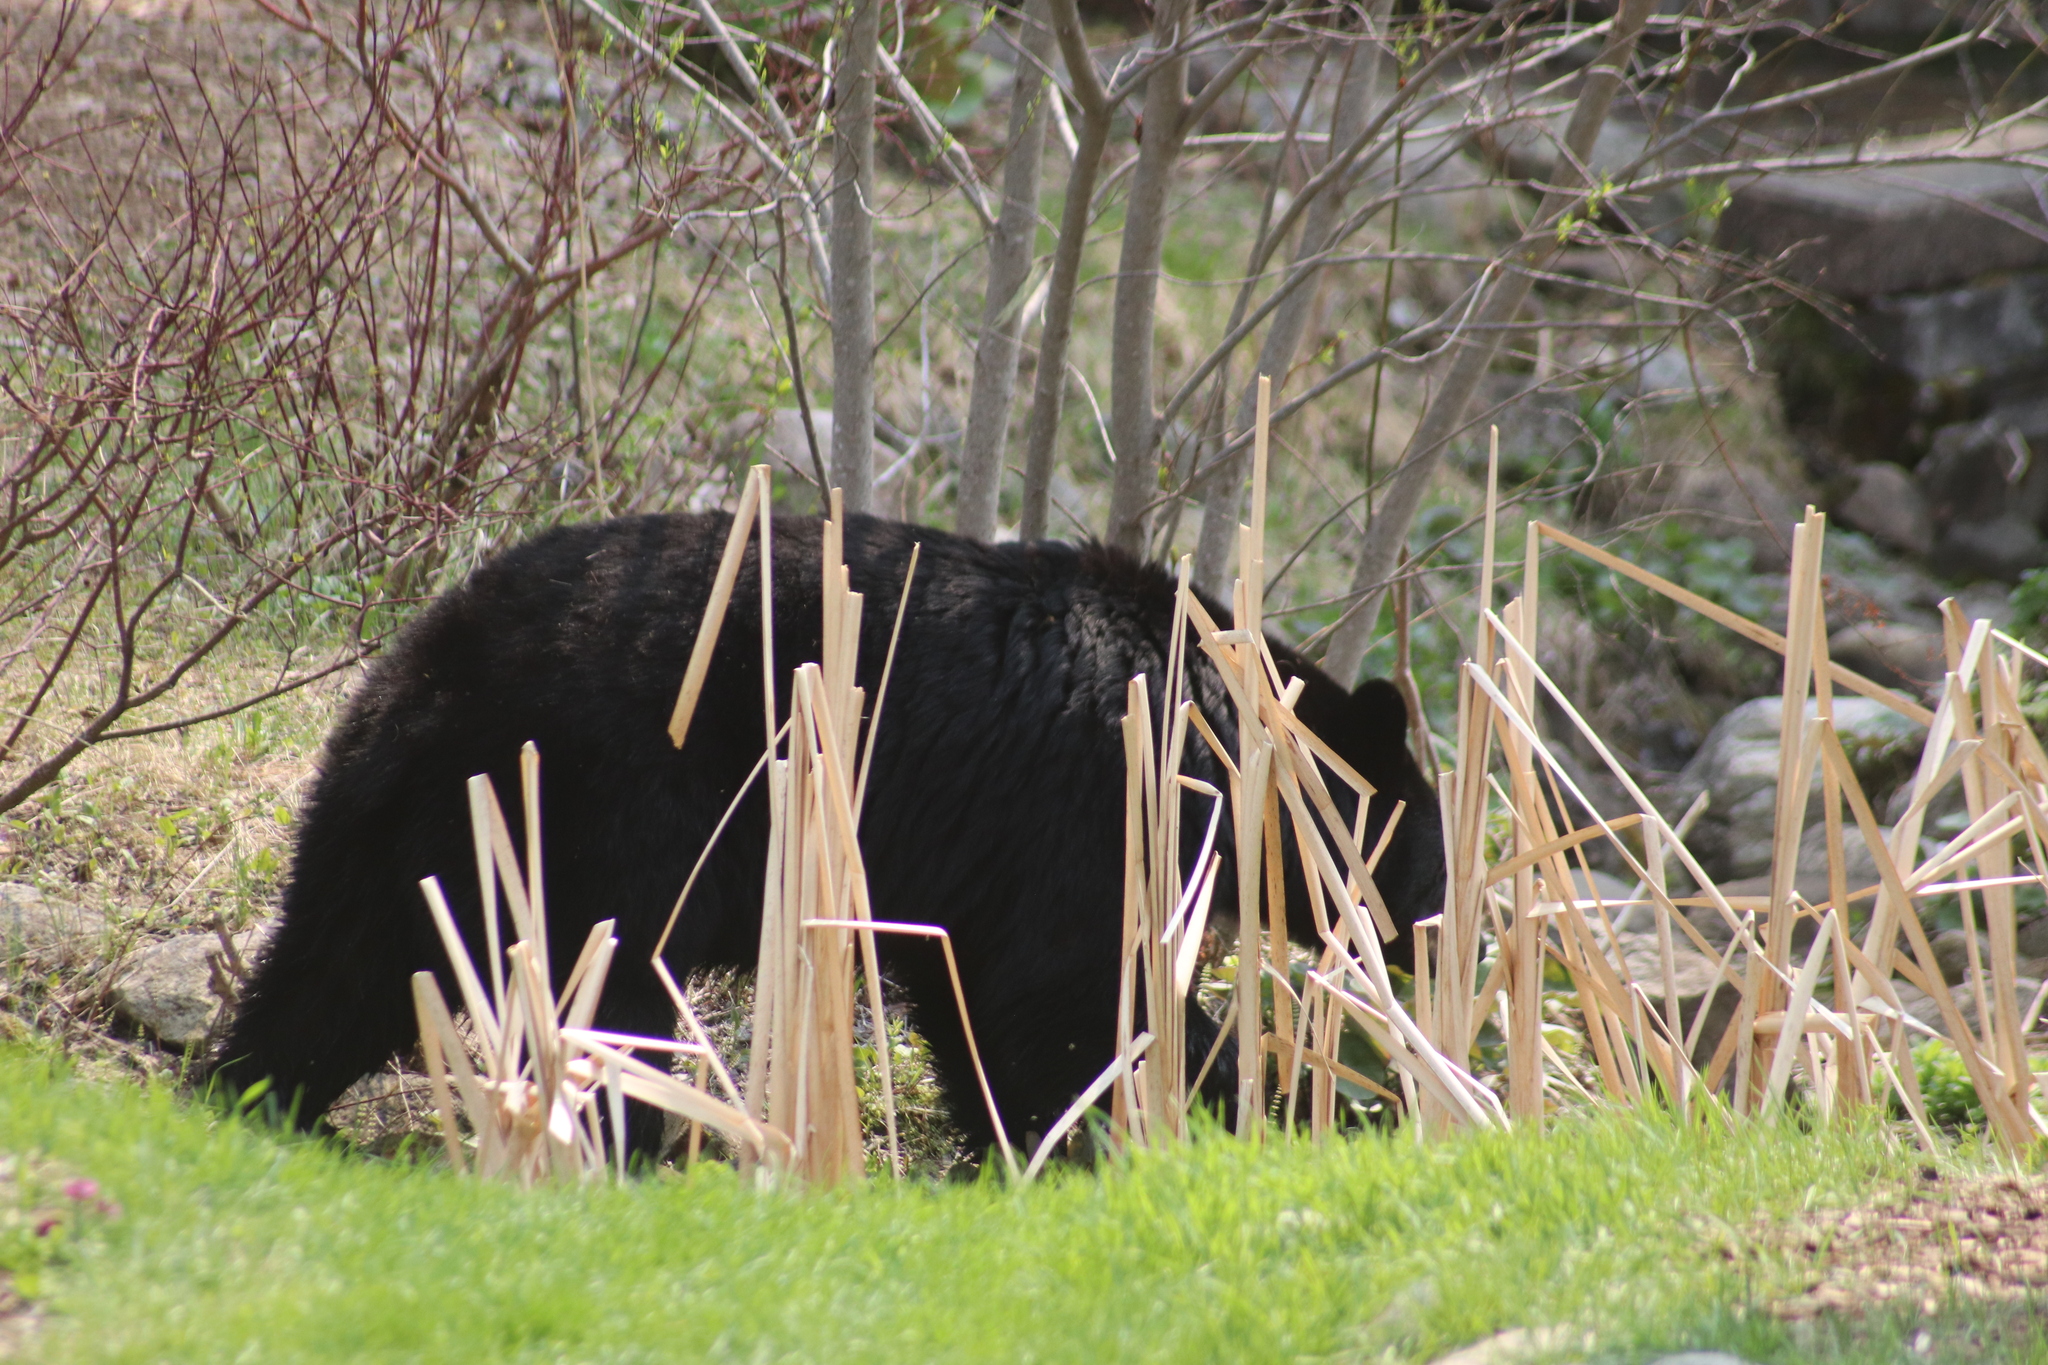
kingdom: Animalia
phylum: Chordata
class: Mammalia
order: Carnivora
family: Ursidae
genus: Ursus
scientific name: Ursus americanus
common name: American black bear
